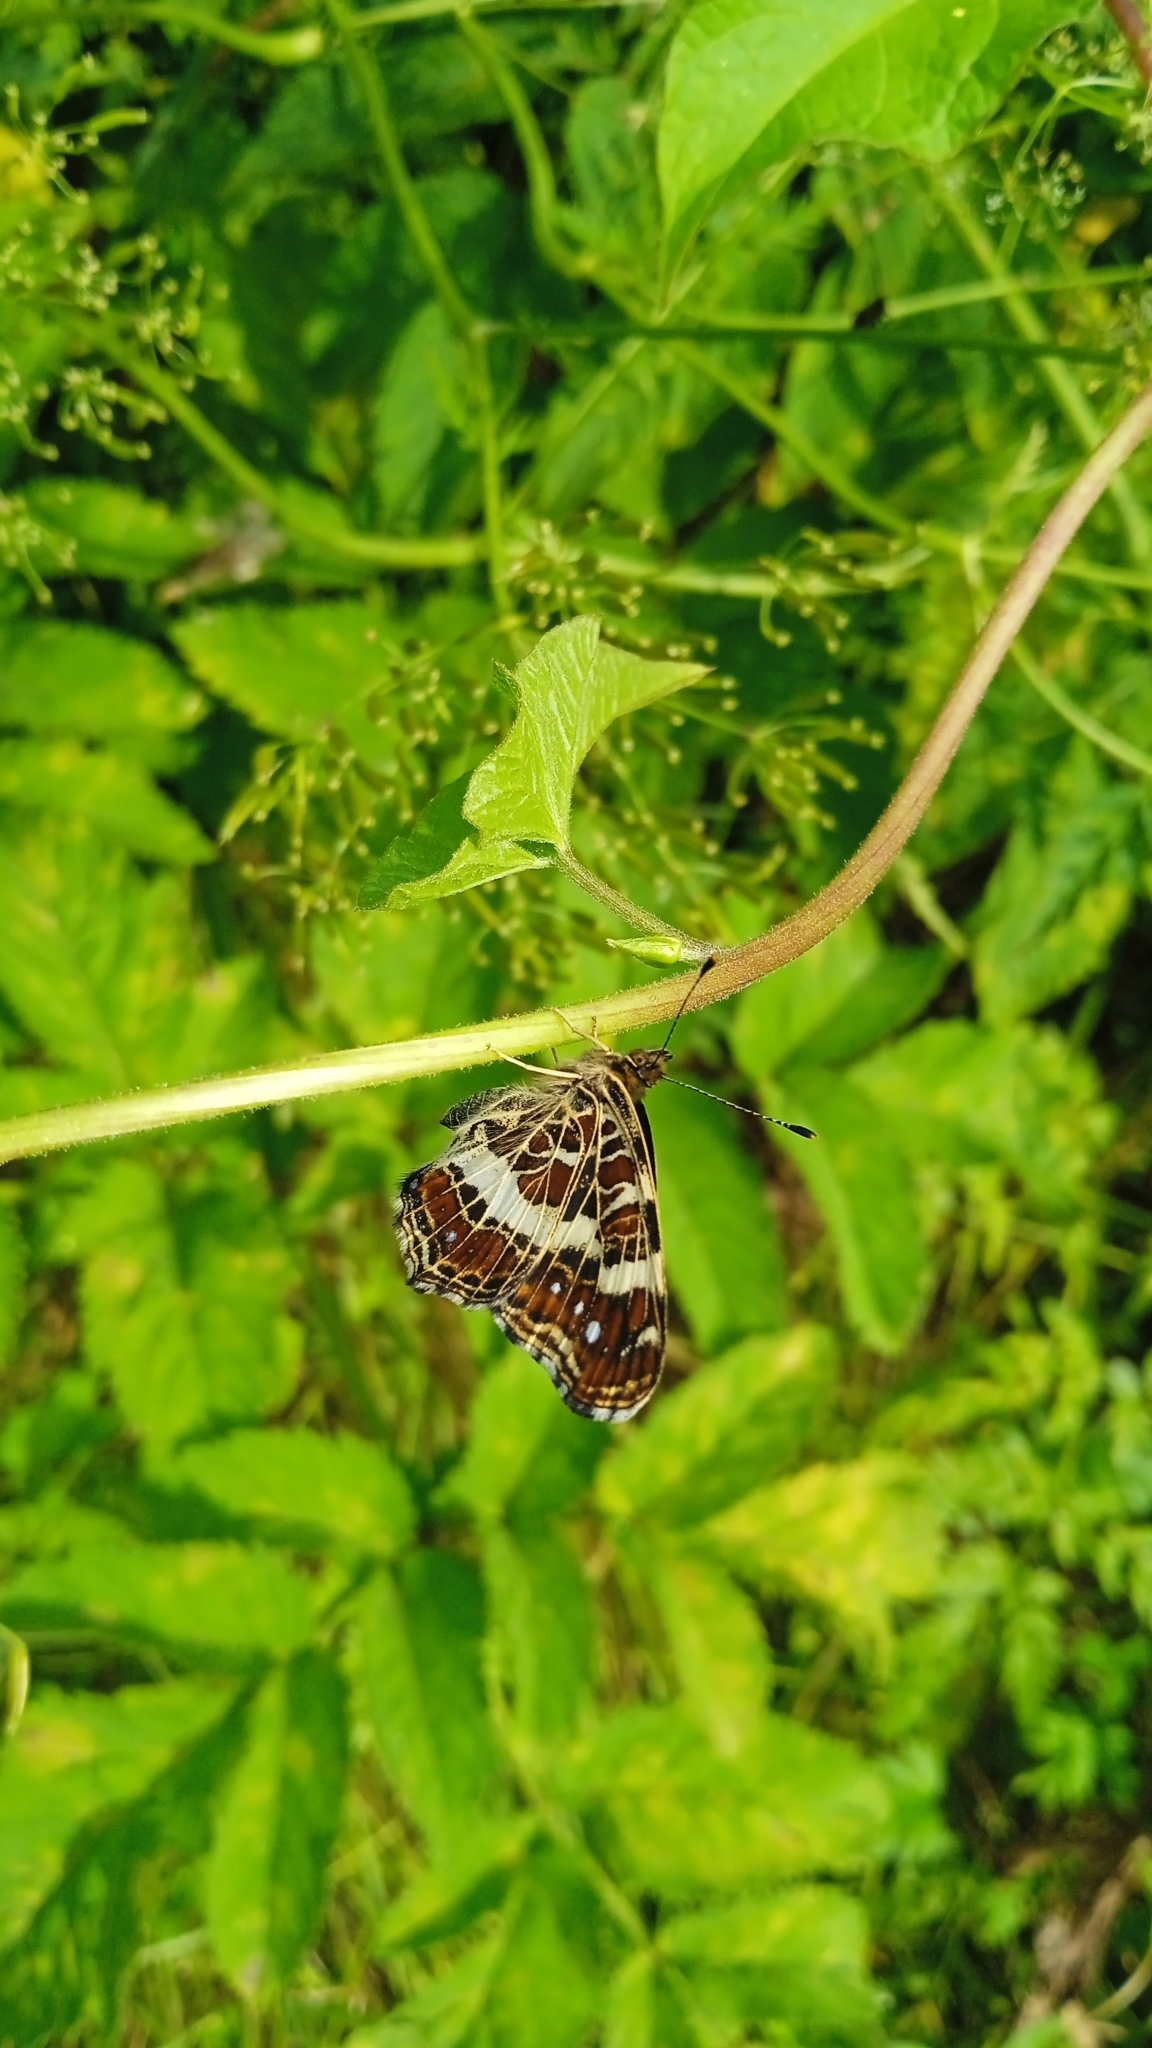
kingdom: Animalia
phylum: Arthropoda
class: Insecta
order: Lepidoptera
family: Nymphalidae
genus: Araschnia
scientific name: Araschnia levana
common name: Map butterfly
